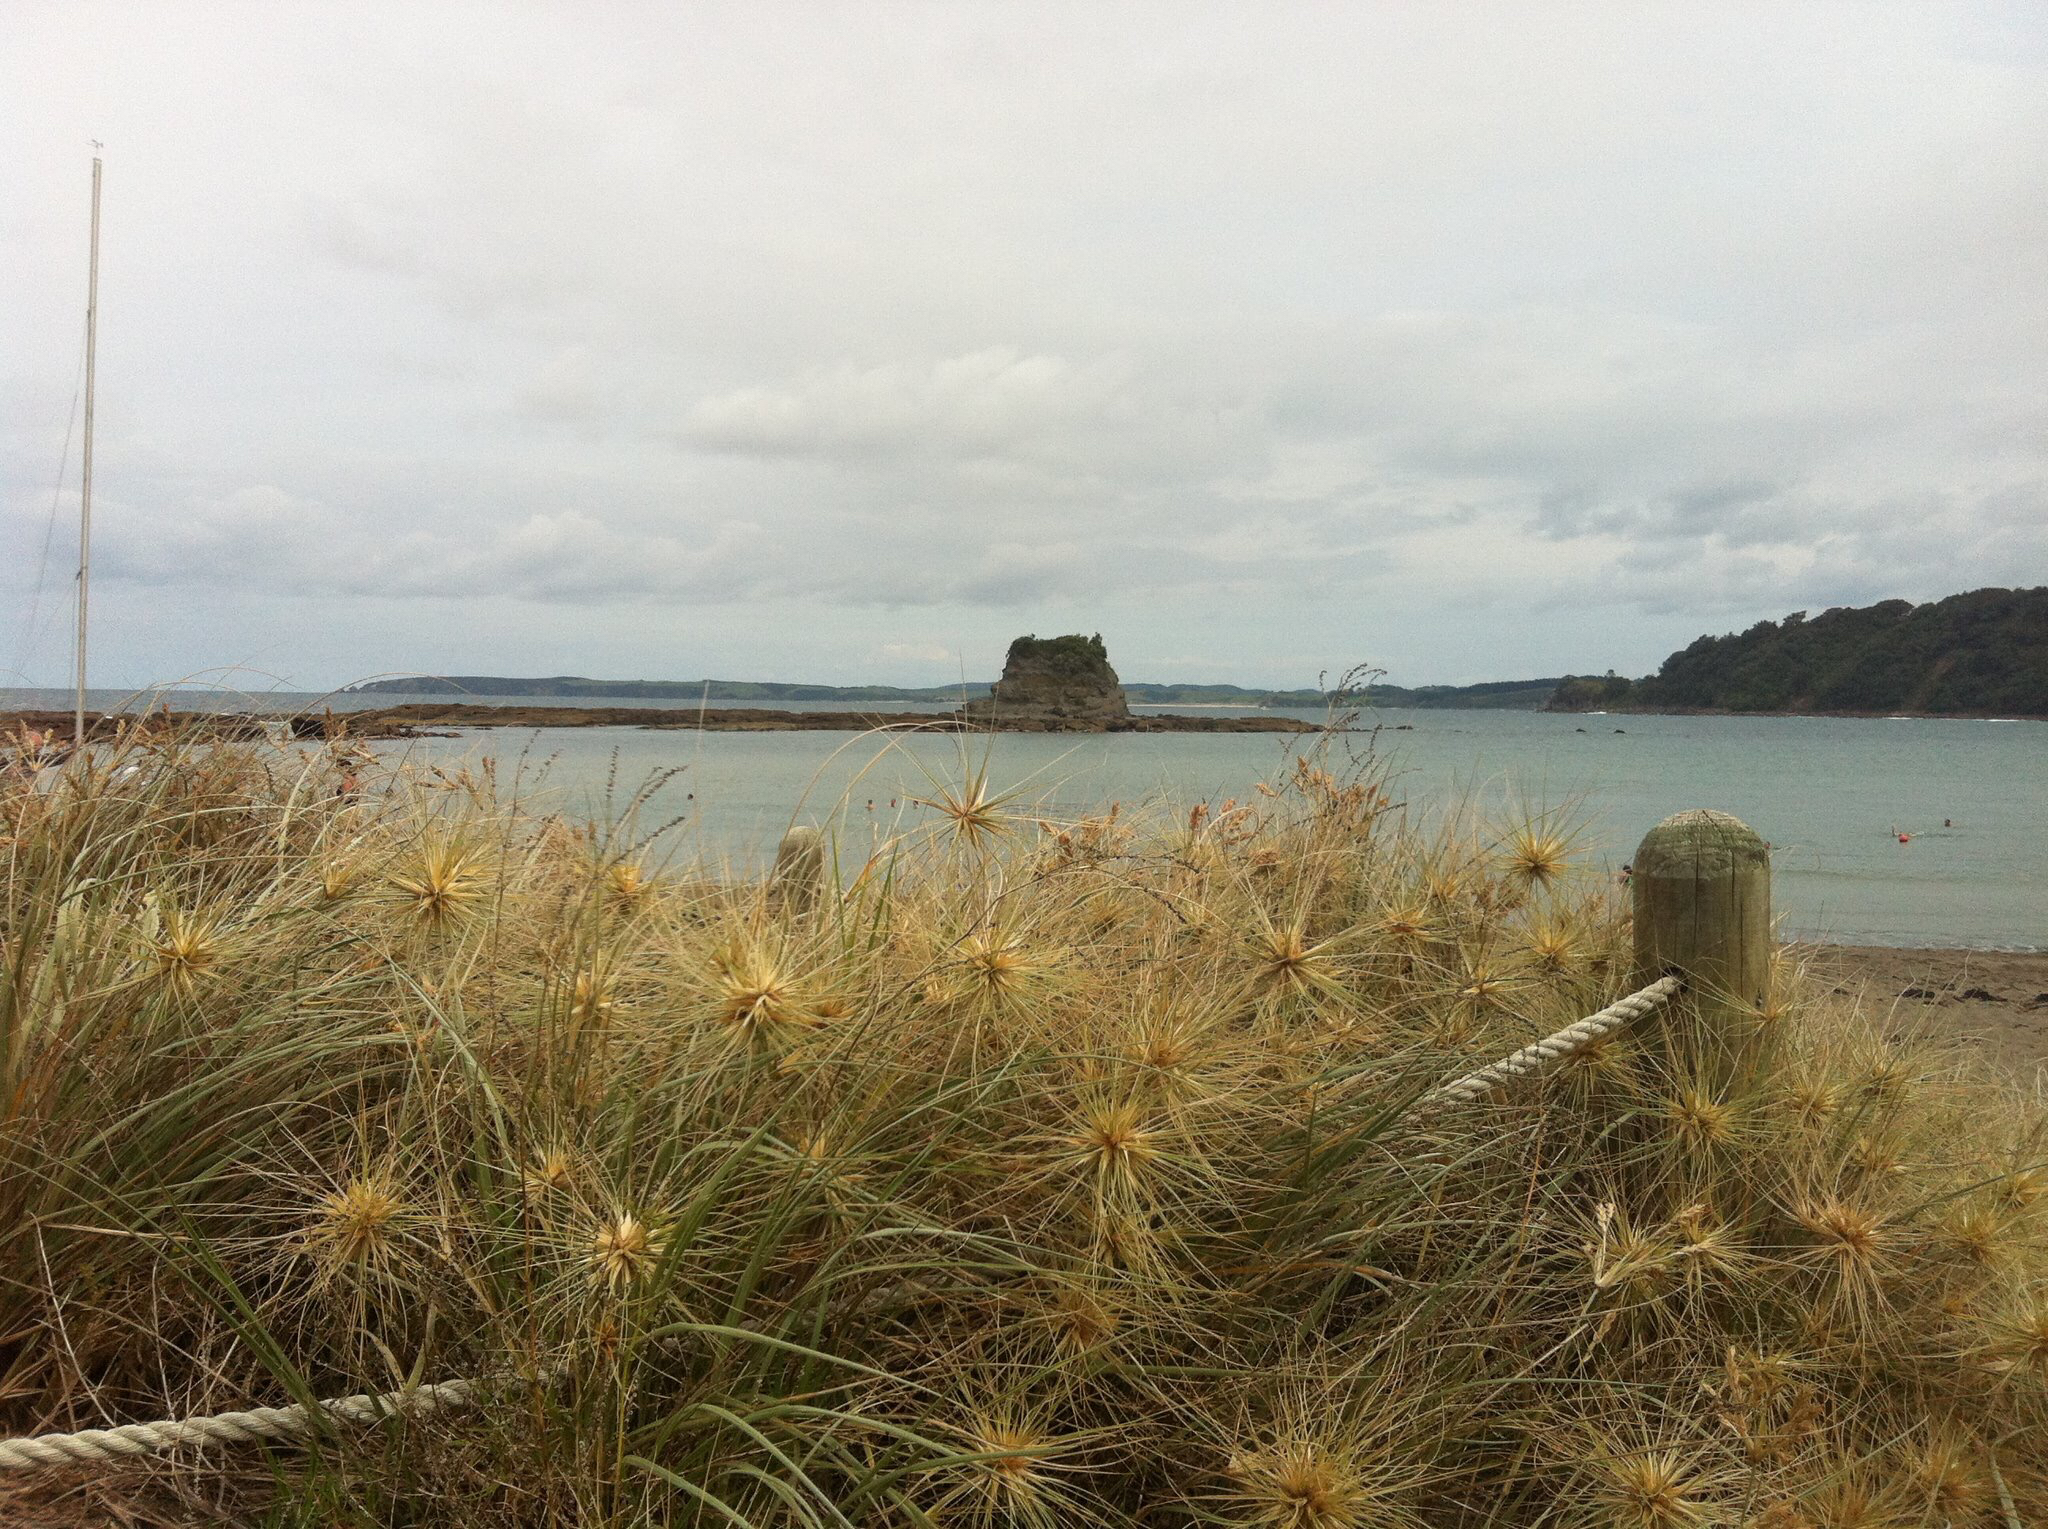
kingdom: Plantae
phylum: Tracheophyta
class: Liliopsida
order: Poales
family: Poaceae
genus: Spinifex
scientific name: Spinifex sericeus
